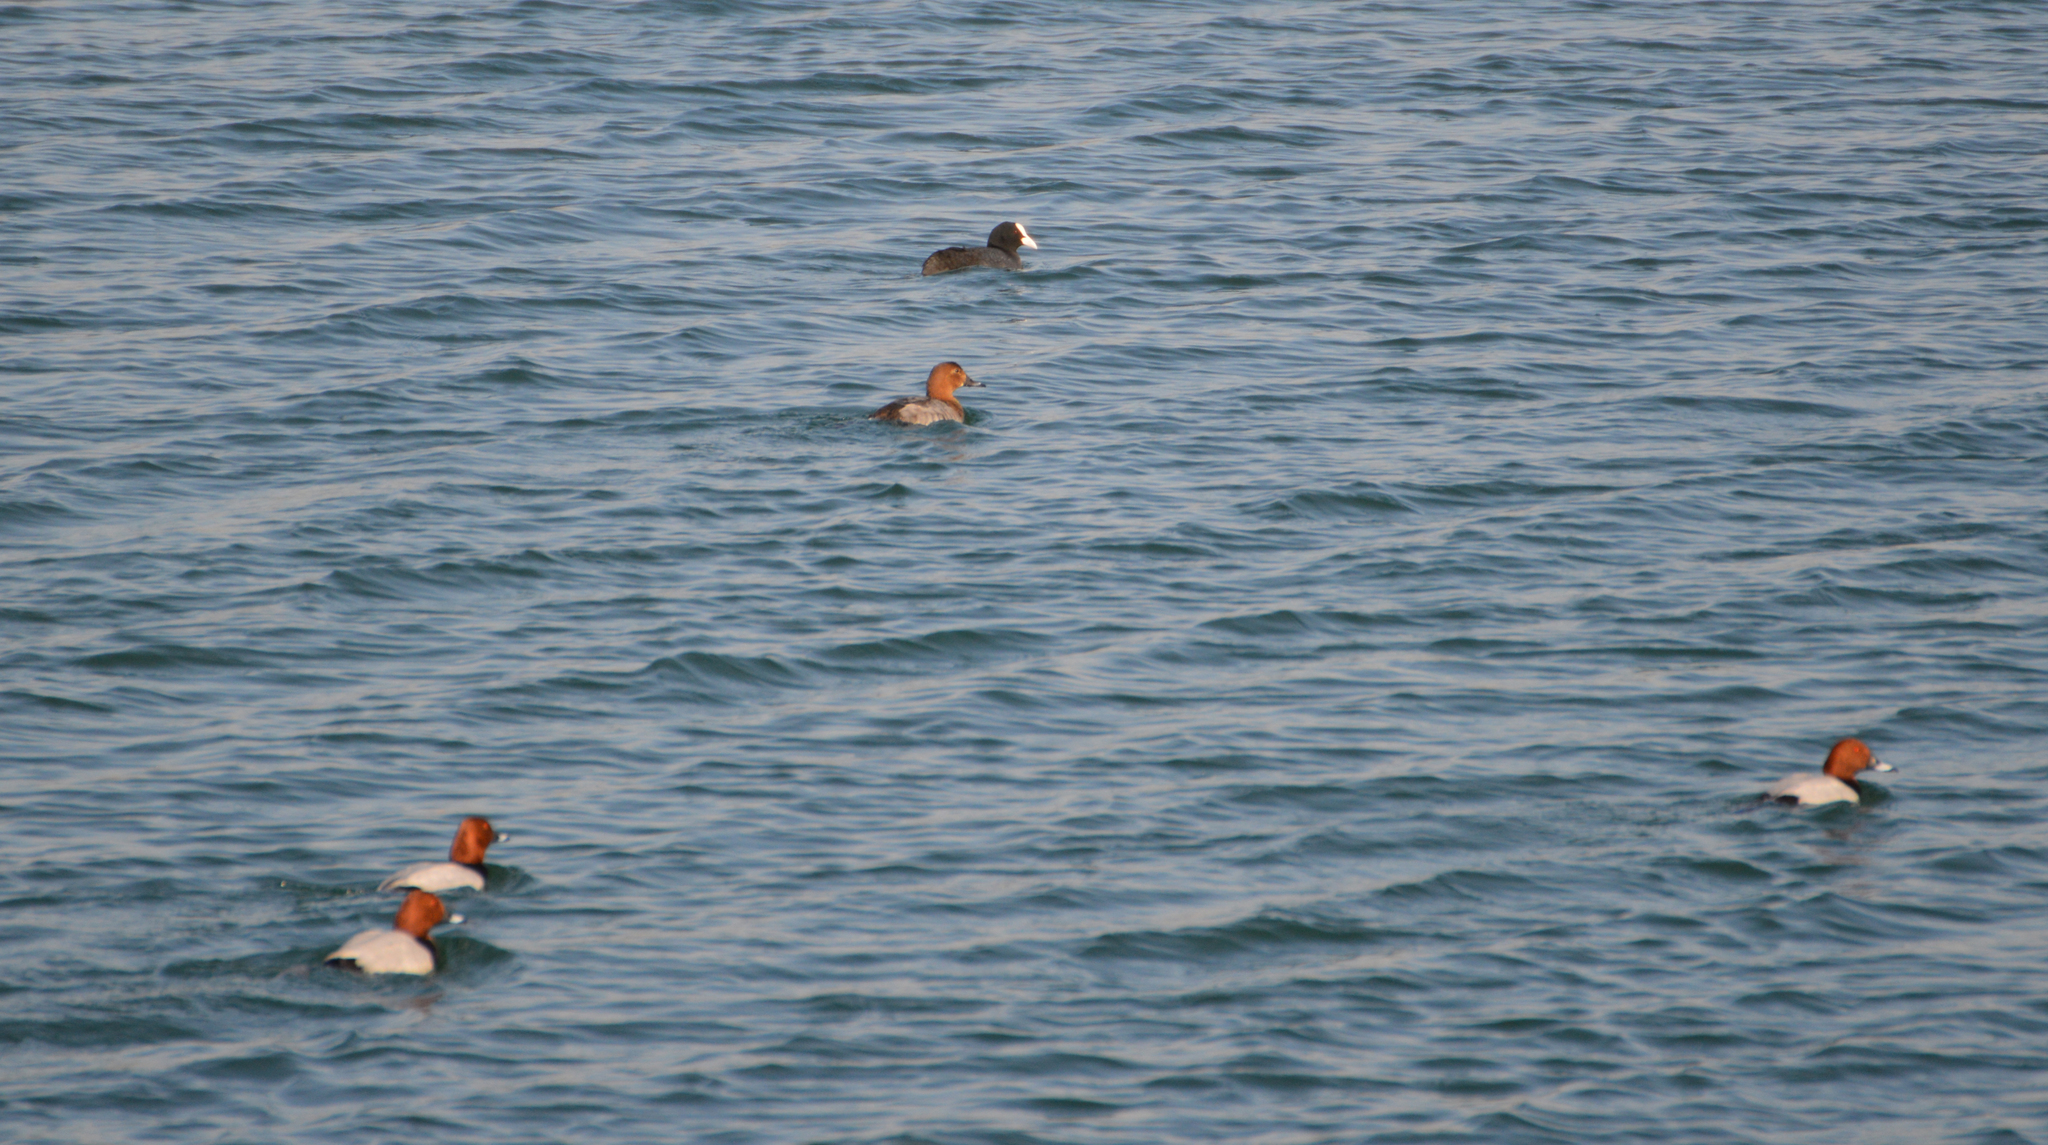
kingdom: Animalia
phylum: Chordata
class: Aves
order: Anseriformes
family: Anatidae
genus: Aythya
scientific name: Aythya ferina
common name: Common pochard
